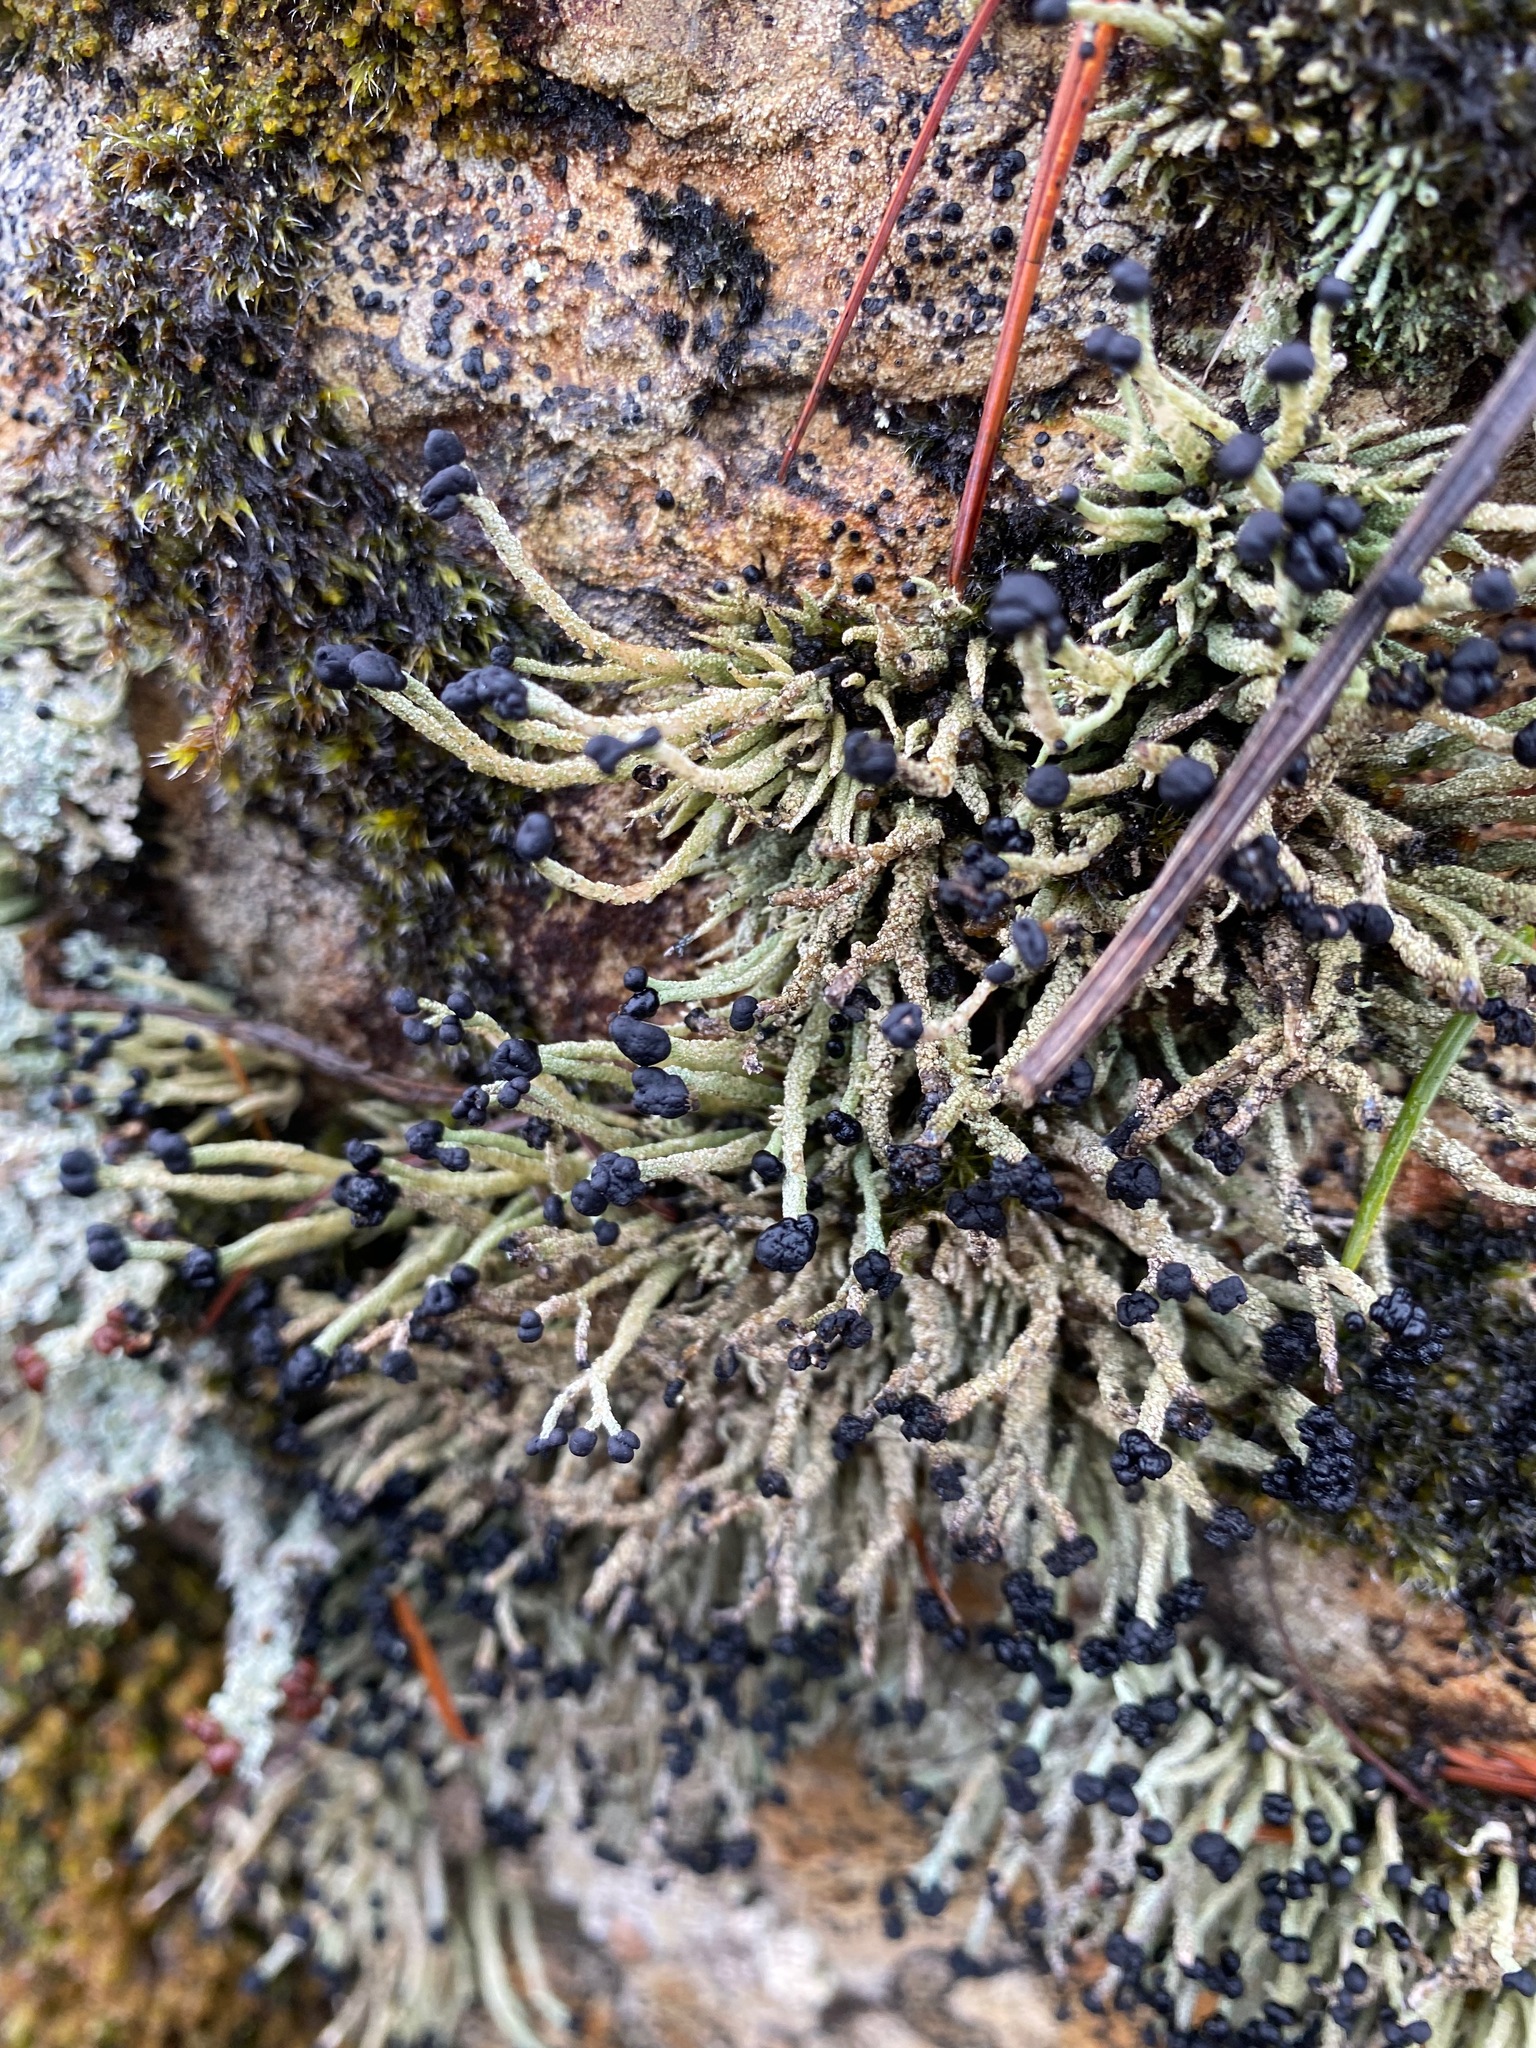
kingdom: Fungi
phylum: Ascomycota
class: Lecanoromycetes
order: Lecanorales
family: Cladoniaceae
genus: Pilophorus
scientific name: Pilophorus acicularis
